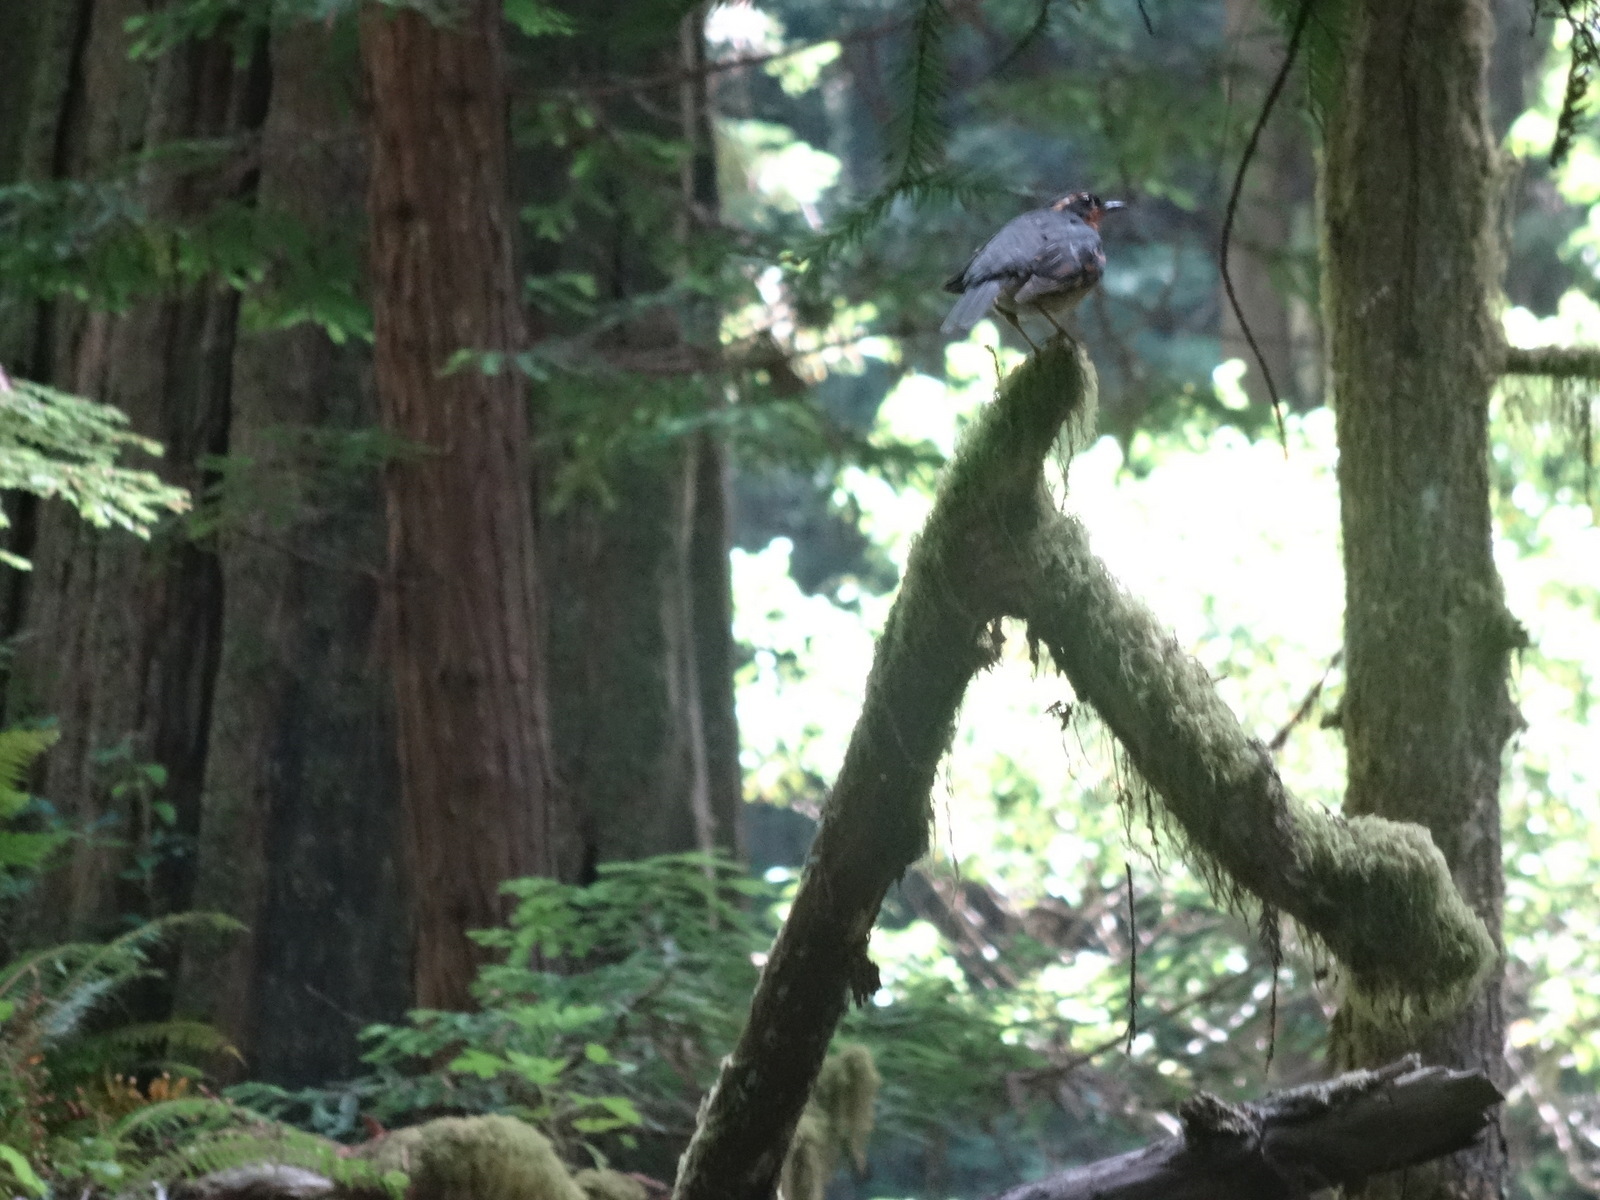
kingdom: Animalia
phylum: Chordata
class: Aves
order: Passeriformes
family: Turdidae
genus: Ixoreus
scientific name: Ixoreus naevius
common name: Varied thrush
